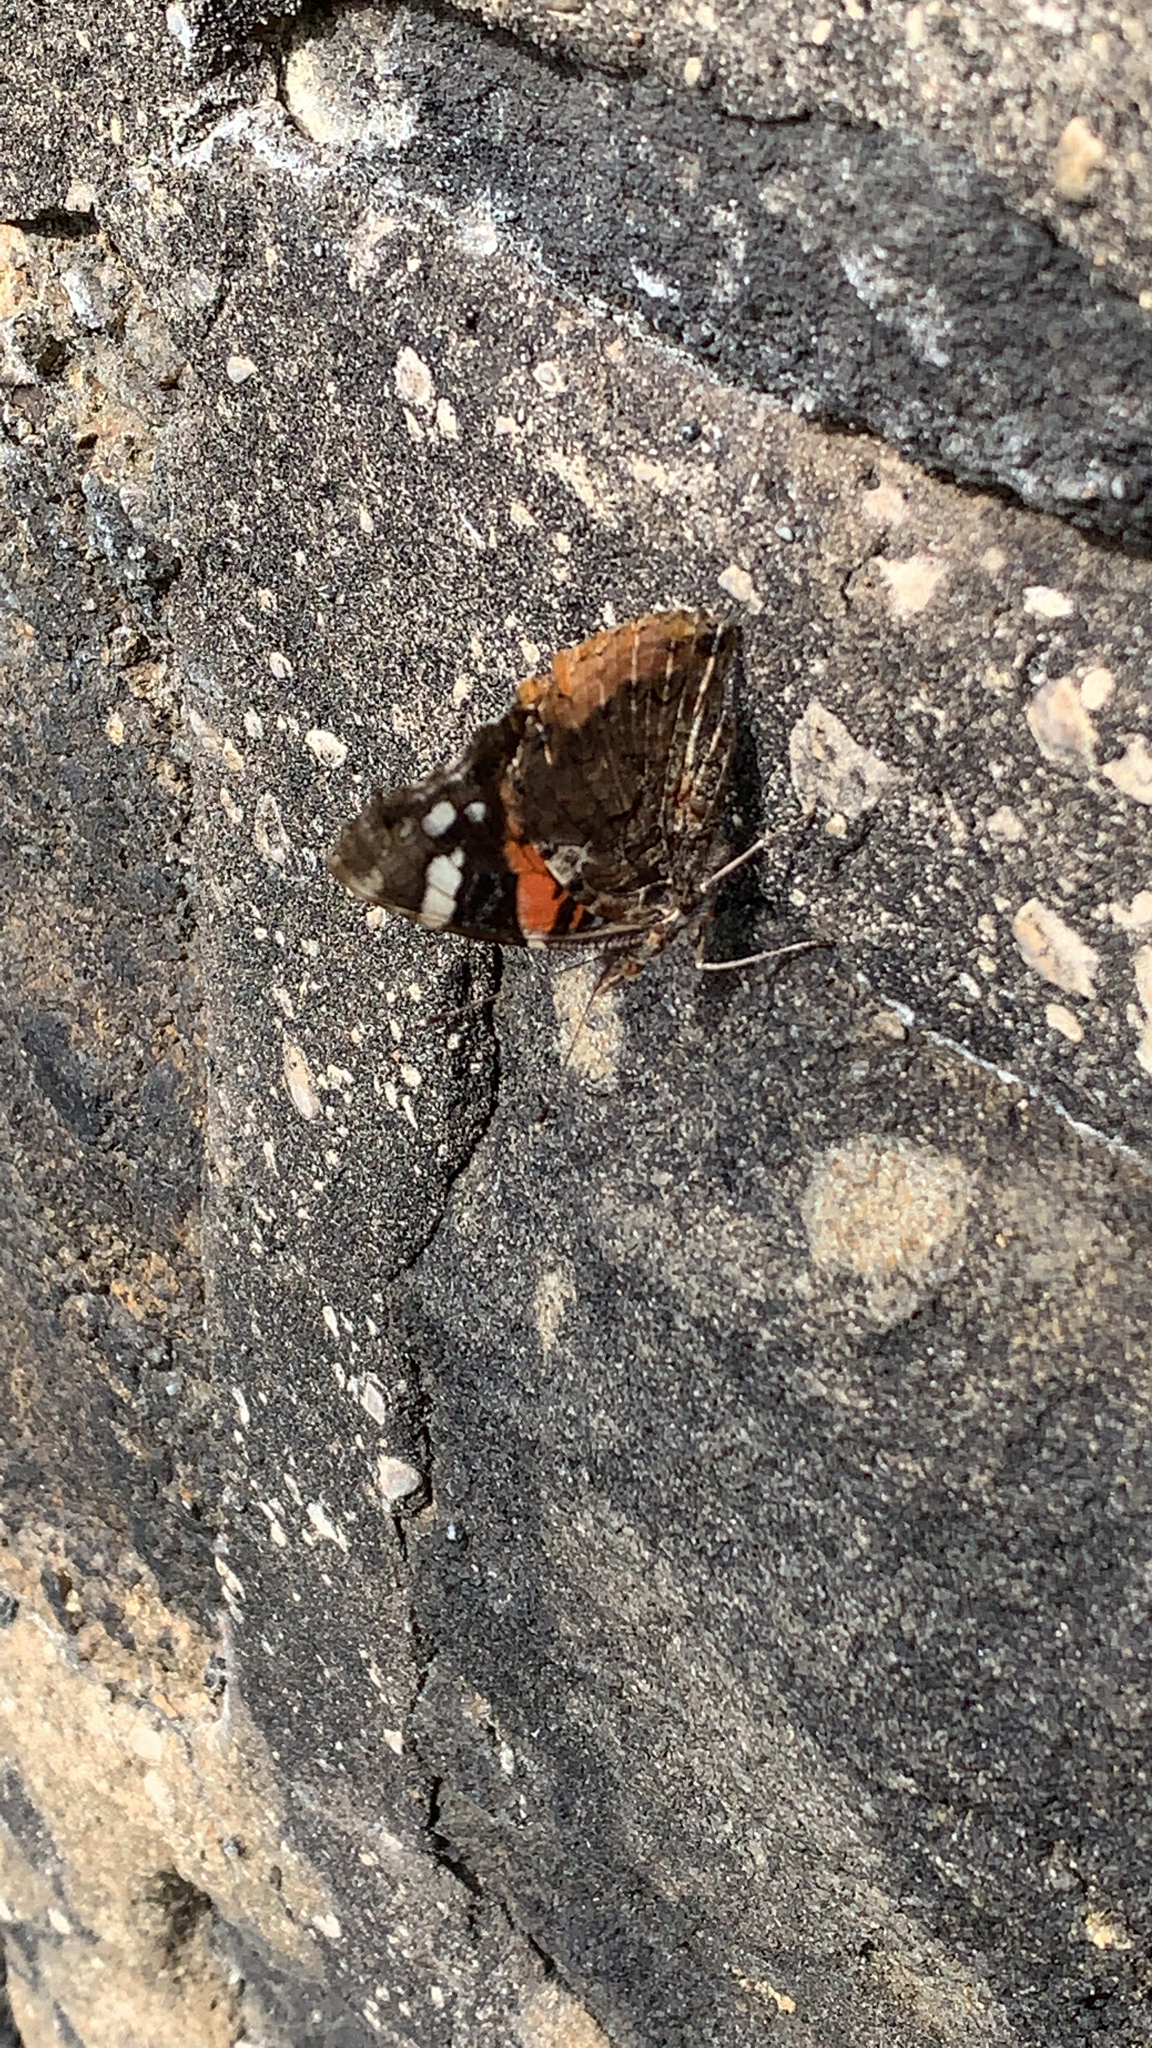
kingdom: Animalia
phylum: Arthropoda
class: Insecta
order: Lepidoptera
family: Nymphalidae
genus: Vanessa
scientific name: Vanessa atalanta
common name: Red admiral
